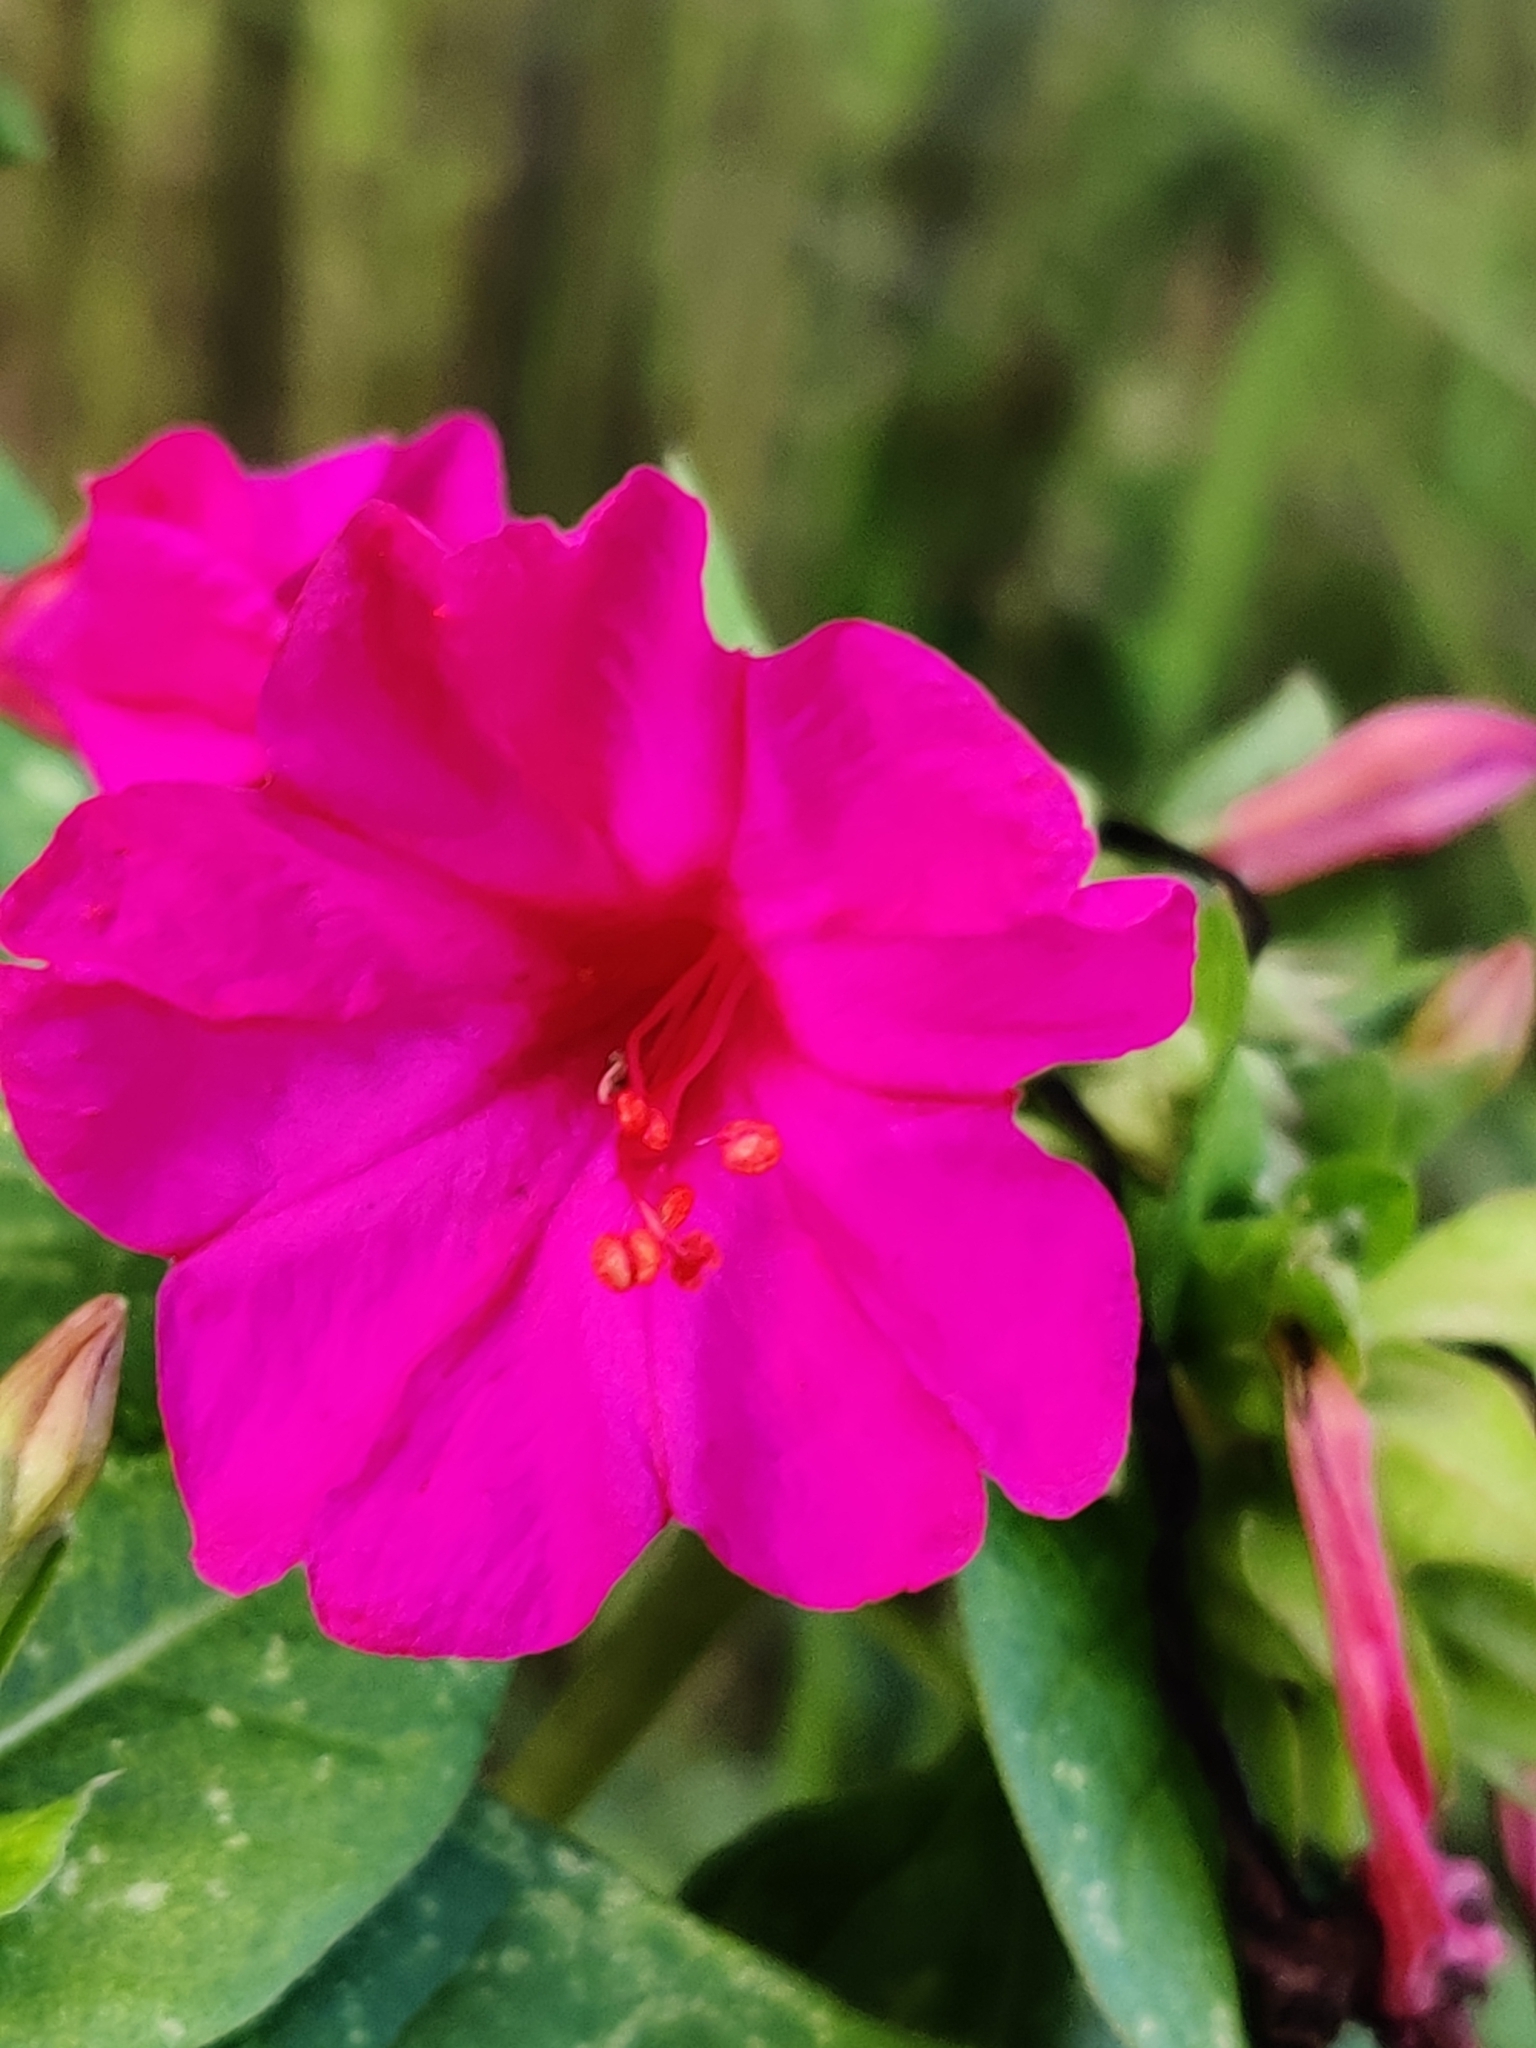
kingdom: Plantae
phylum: Tracheophyta
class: Magnoliopsida
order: Caryophyllales
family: Nyctaginaceae
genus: Mirabilis
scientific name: Mirabilis jalapa
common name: Marvel-of-peru
